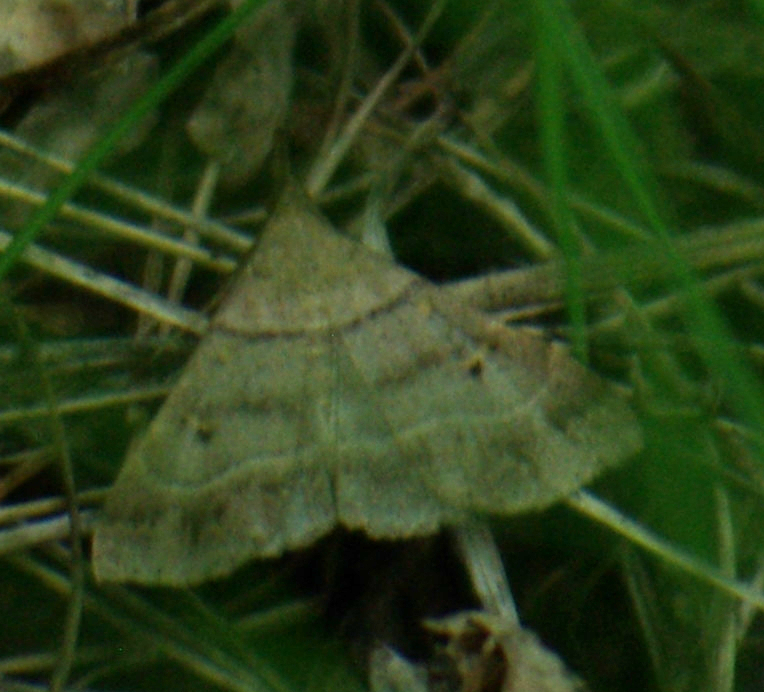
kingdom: Animalia
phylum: Arthropoda
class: Insecta
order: Lepidoptera
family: Erebidae
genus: Renia
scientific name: Renia flavipunctalis
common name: Yellow-spotted renia moth
